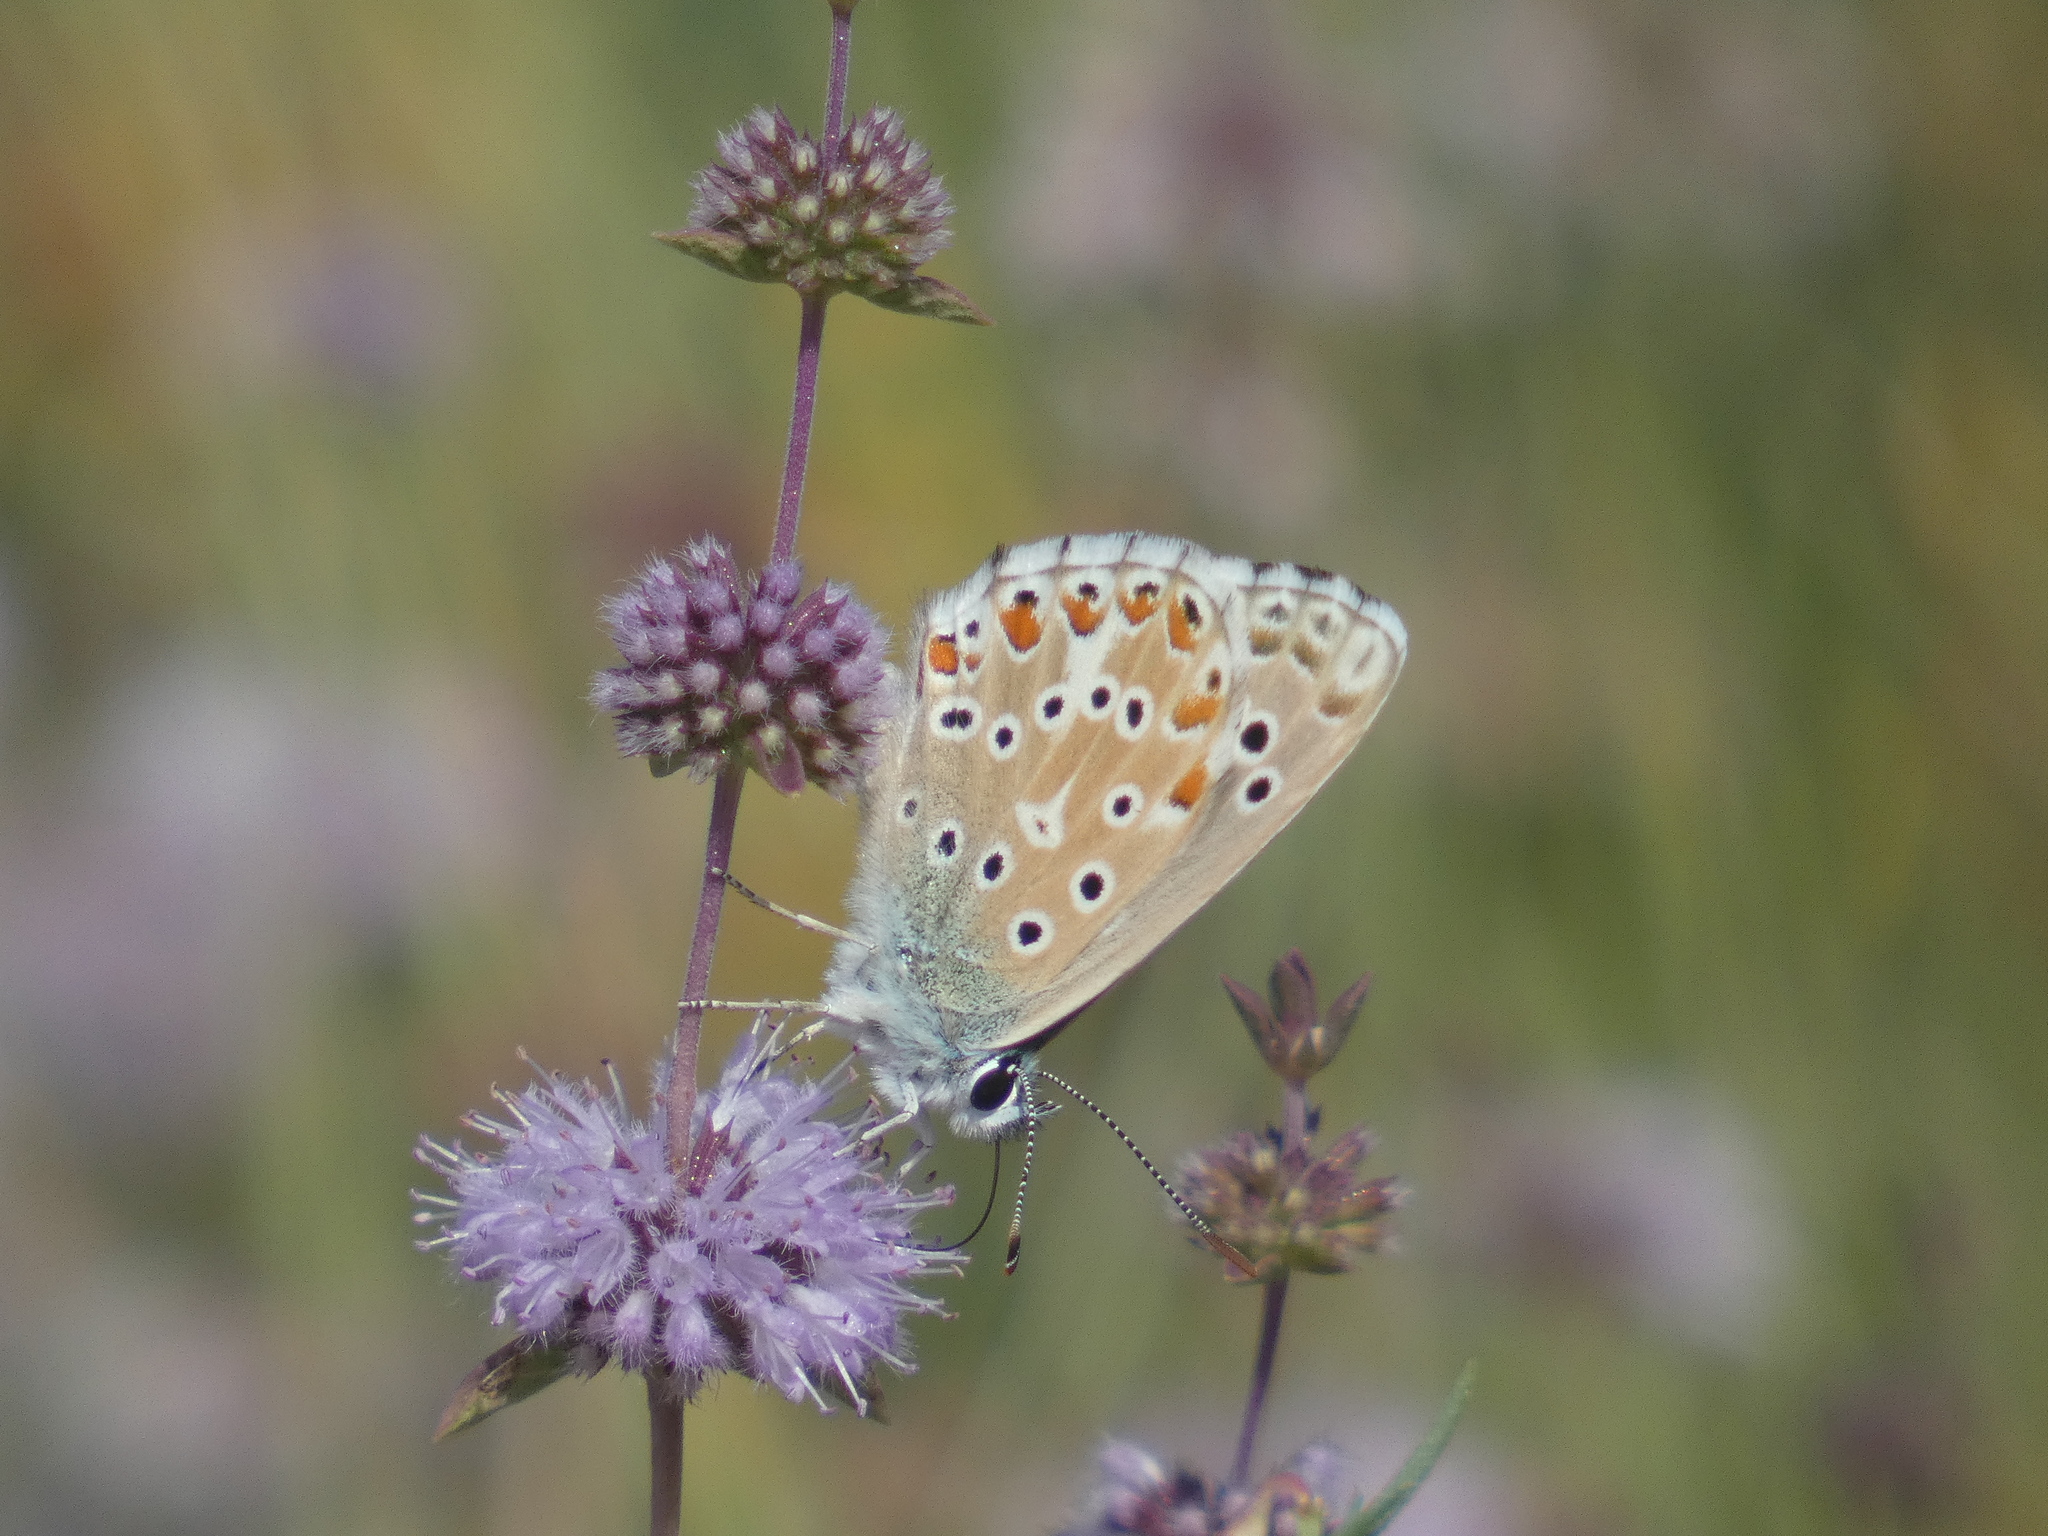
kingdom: Animalia
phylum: Arthropoda
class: Insecta
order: Lepidoptera
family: Lycaenidae
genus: Lysandra
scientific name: Lysandra bellargus
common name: Adonis blue
